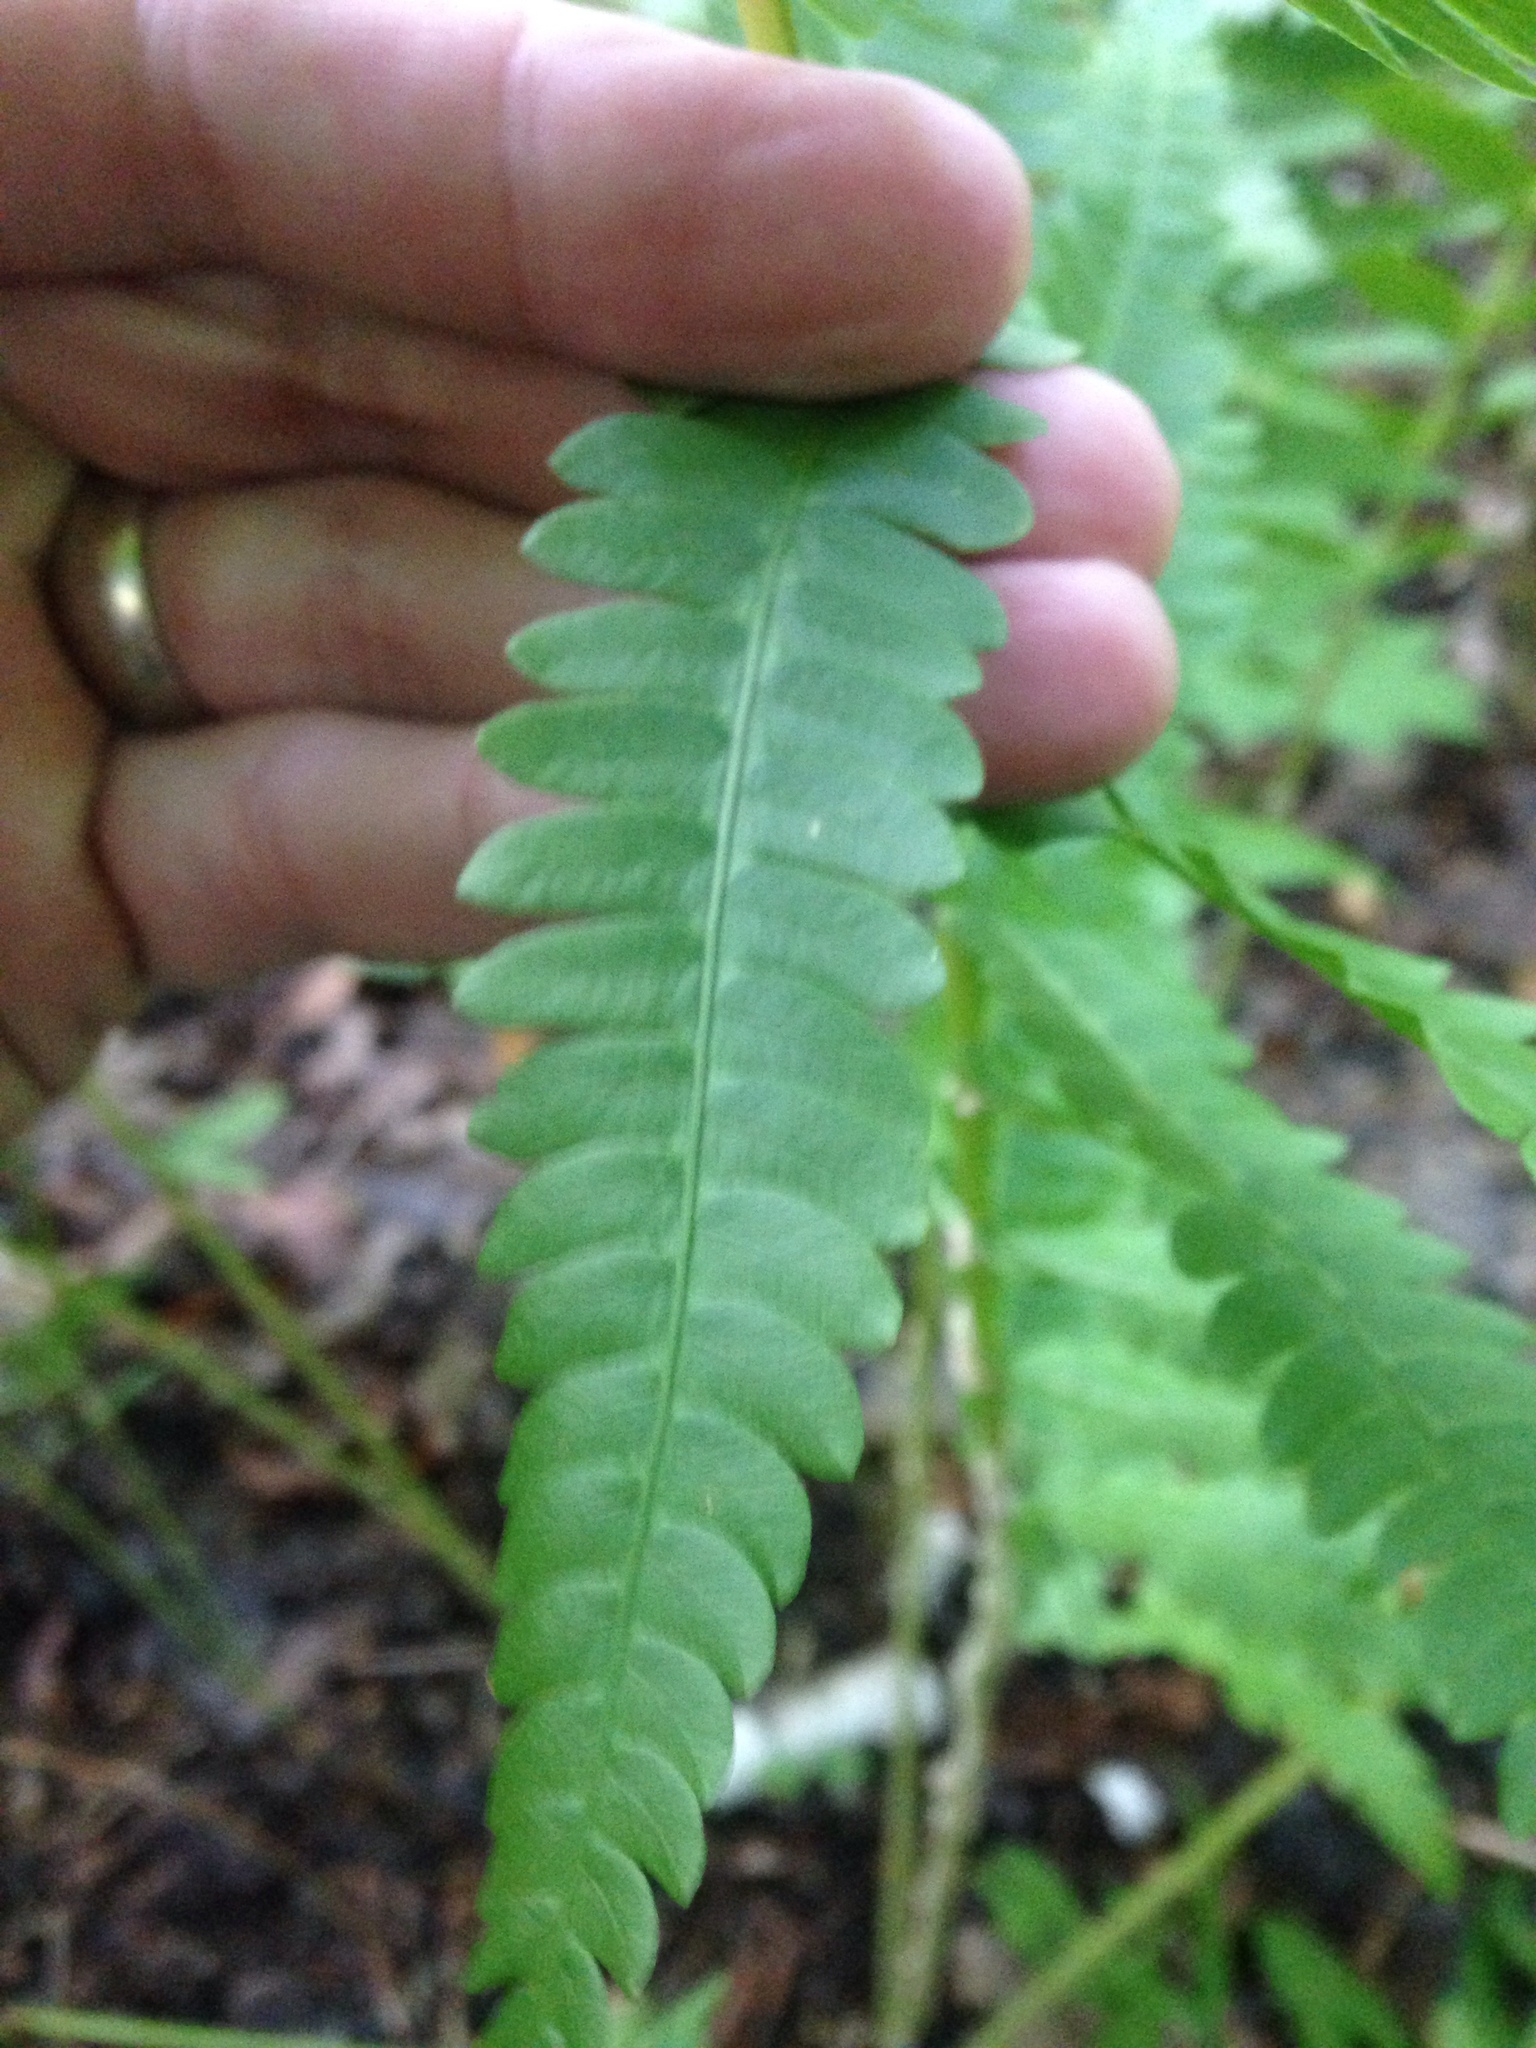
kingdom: Plantae
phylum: Tracheophyta
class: Polypodiopsida
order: Osmundales
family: Osmundaceae
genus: Osmundastrum
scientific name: Osmundastrum cinnamomeum
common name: Cinnamon fern
